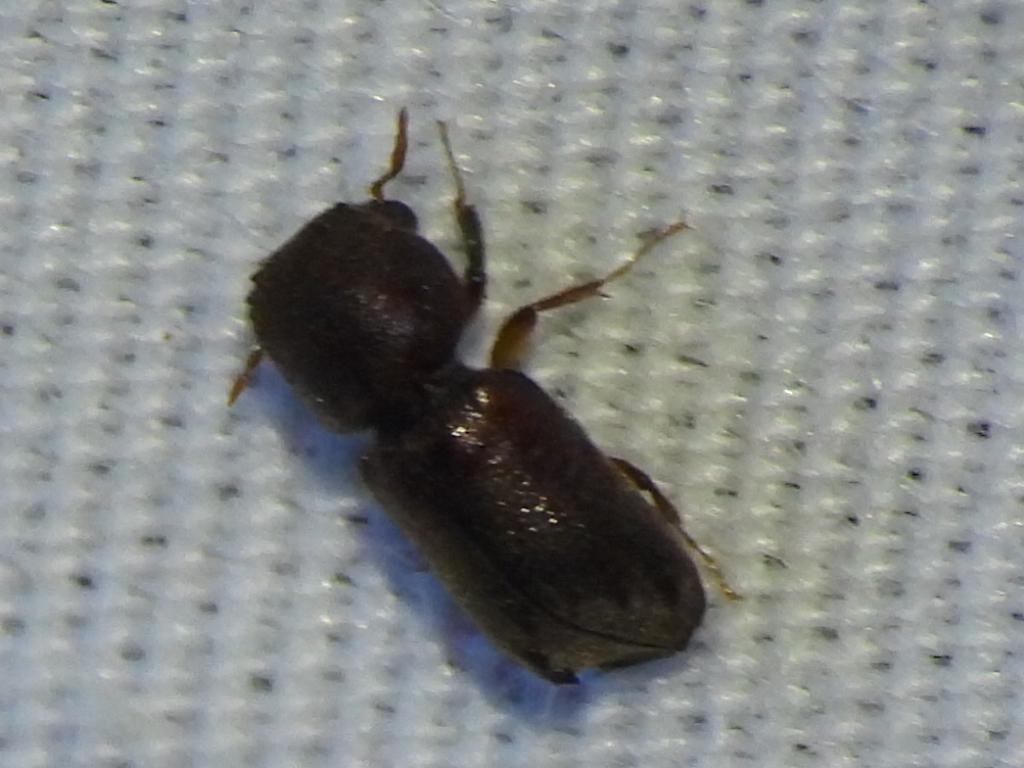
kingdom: Animalia
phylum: Arthropoda
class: Insecta
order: Coleoptera
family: Bostrichidae
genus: Xylobiops
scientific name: Xylobiops basilaris
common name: Red-shouldered bostrichid
